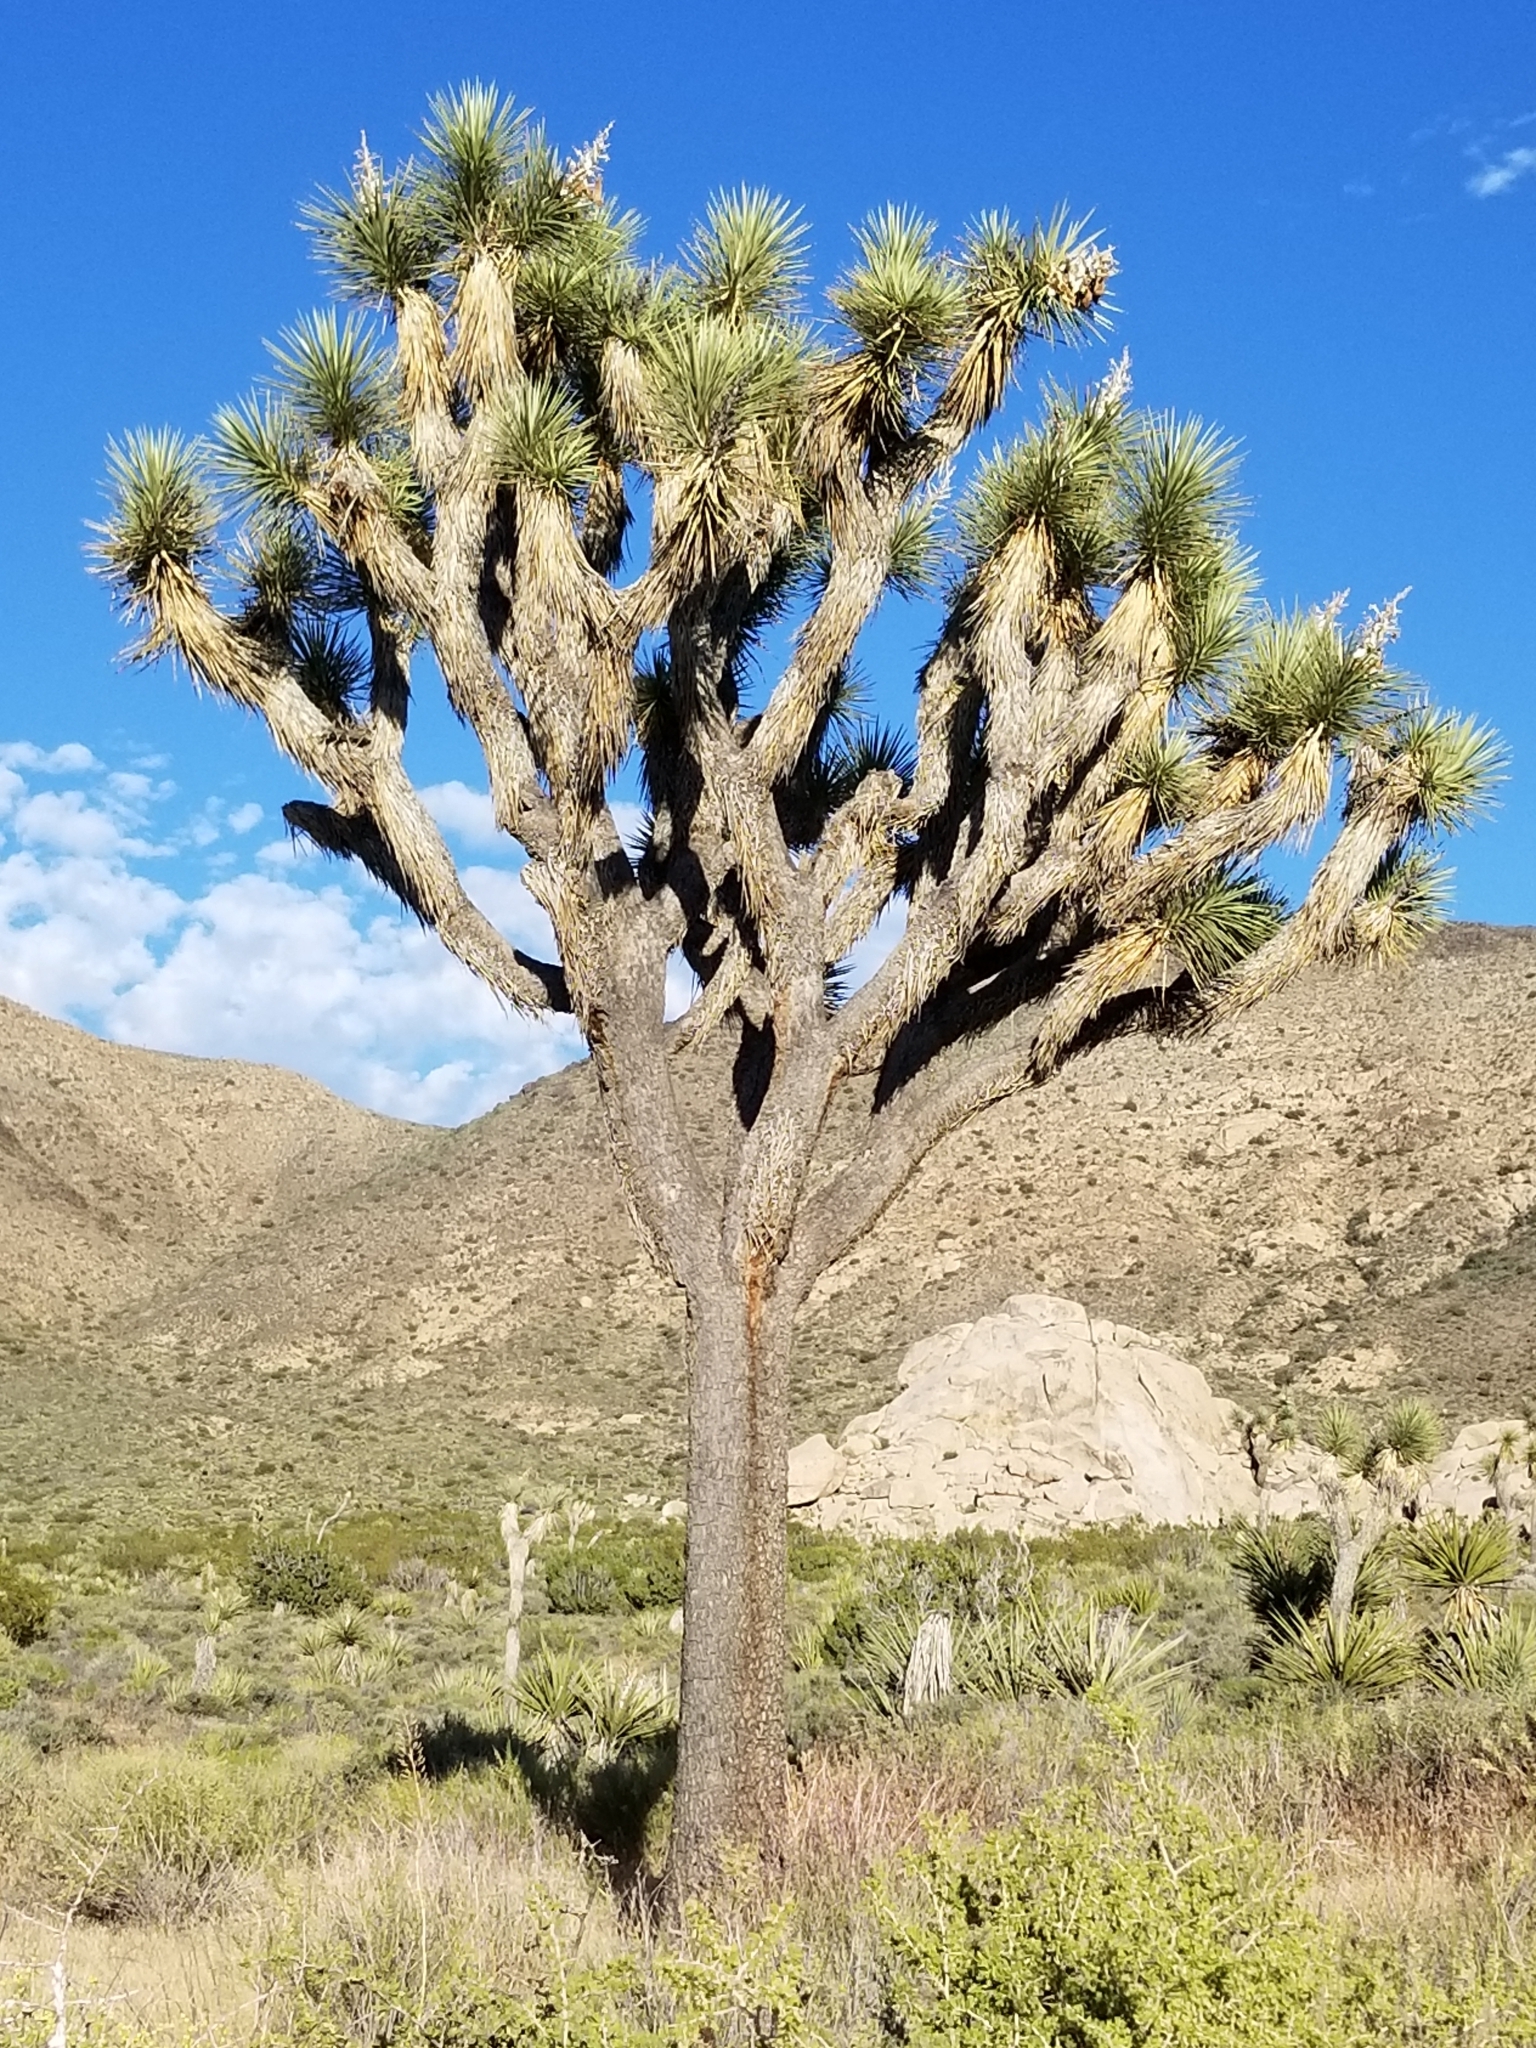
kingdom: Plantae
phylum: Tracheophyta
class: Liliopsida
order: Asparagales
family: Asparagaceae
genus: Yucca
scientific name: Yucca brevifolia
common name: Joshua tree
